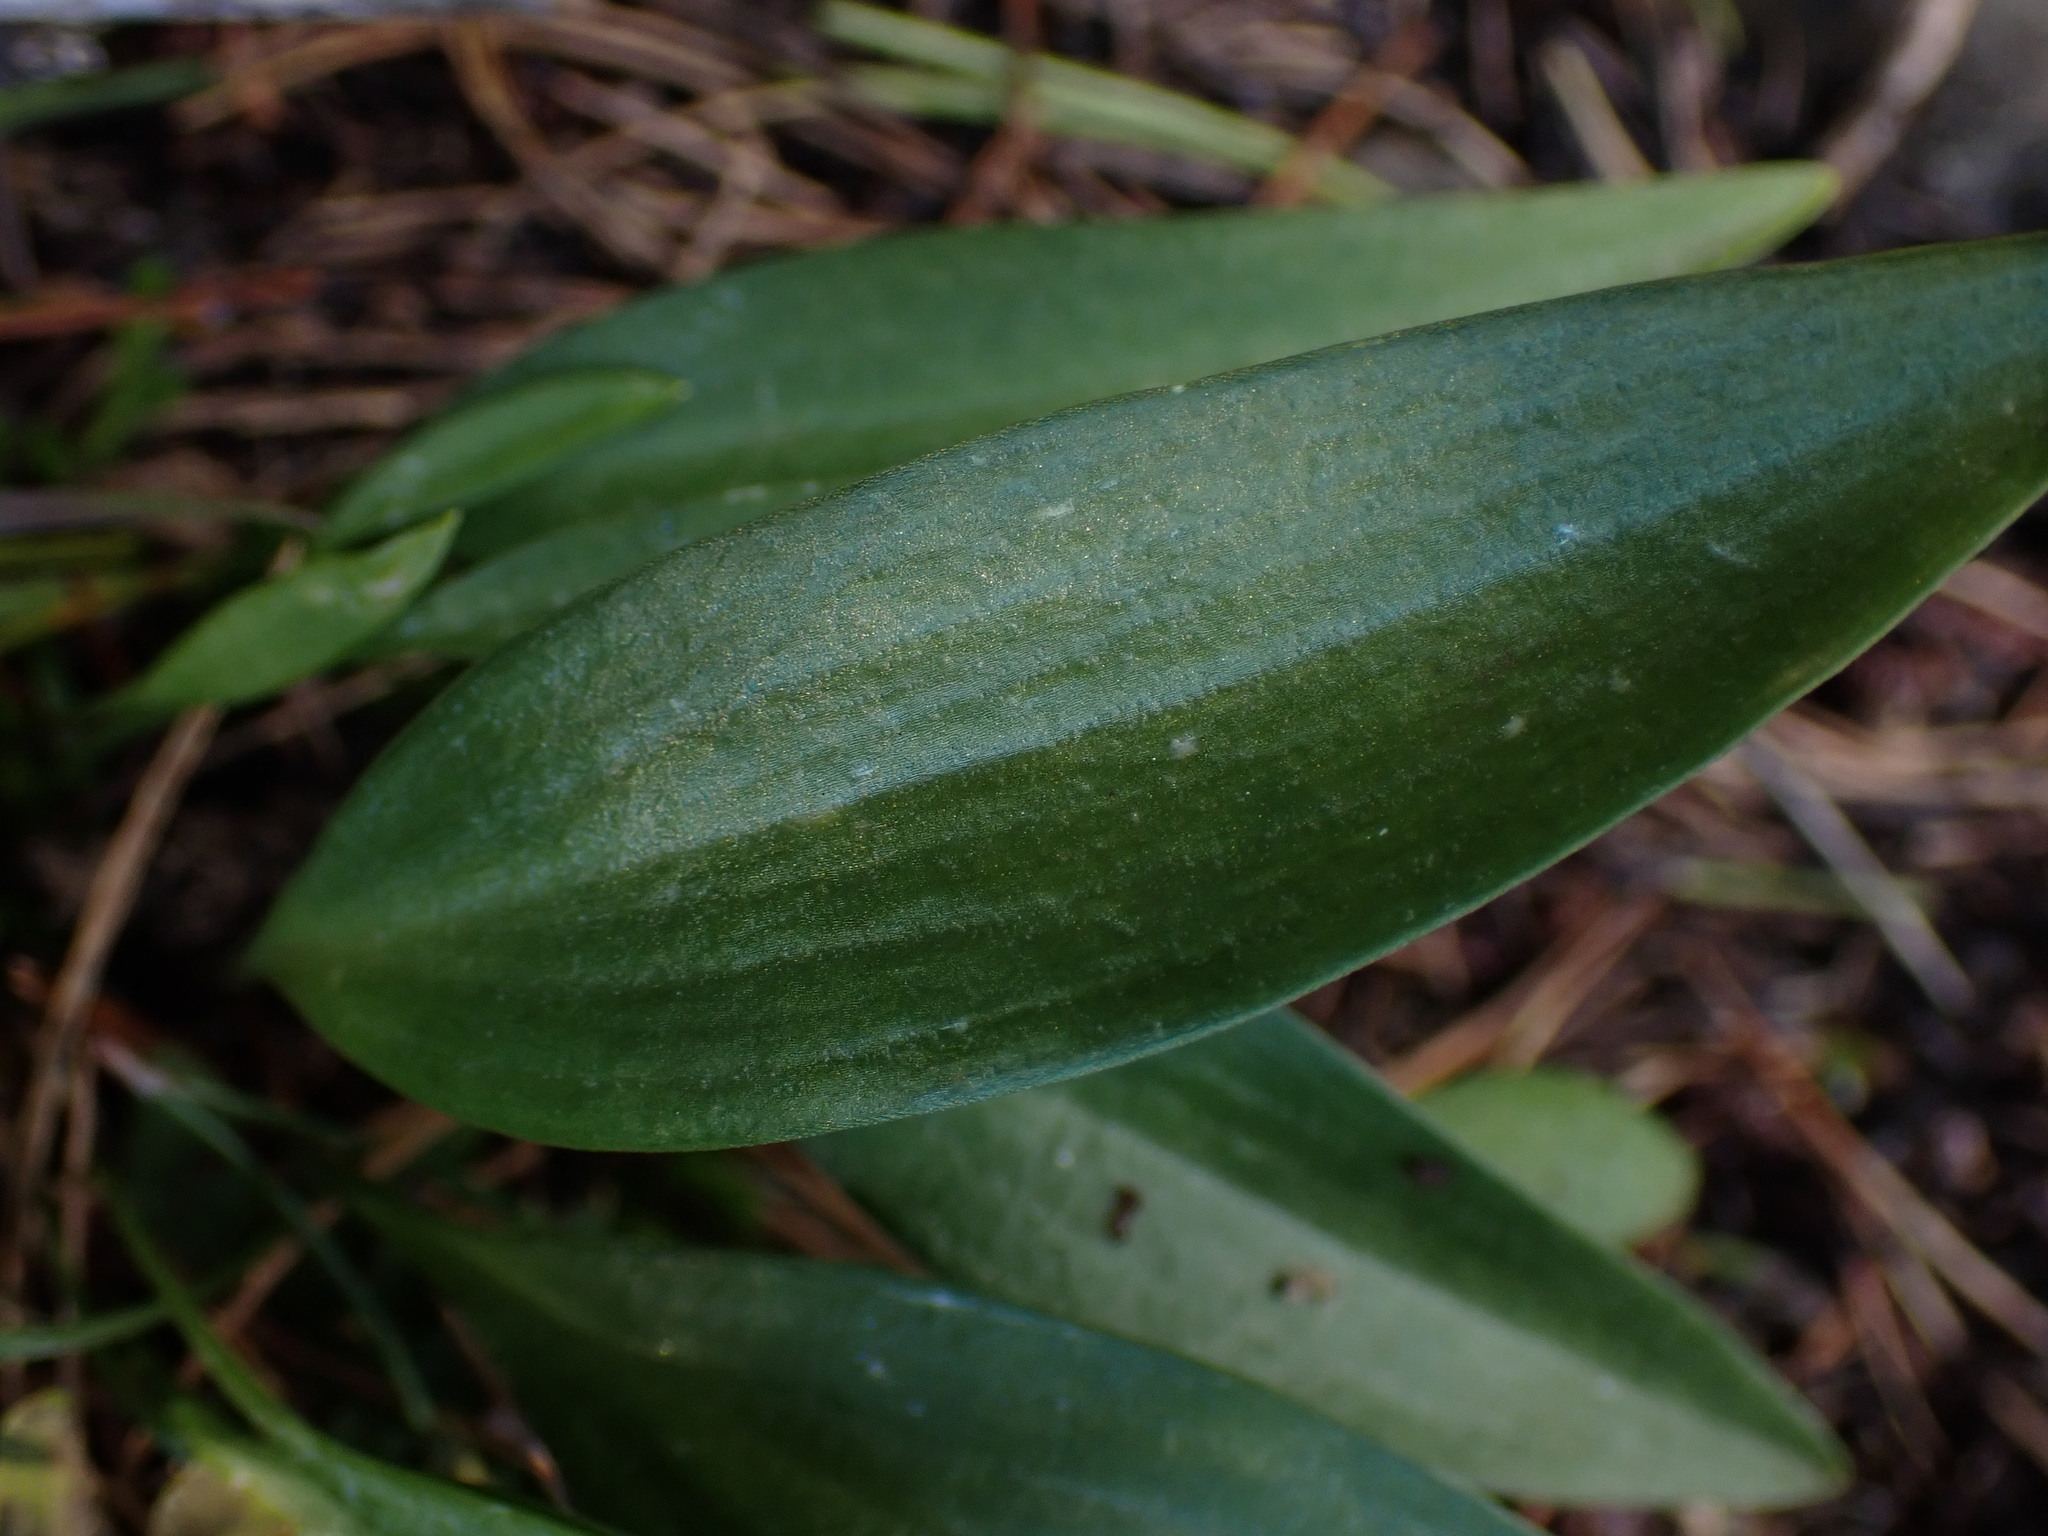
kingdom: Plantae
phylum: Tracheophyta
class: Liliopsida
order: Liliales
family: Liliaceae
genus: Fritillaria
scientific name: Fritillaria affinis
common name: Ojai fritillary
